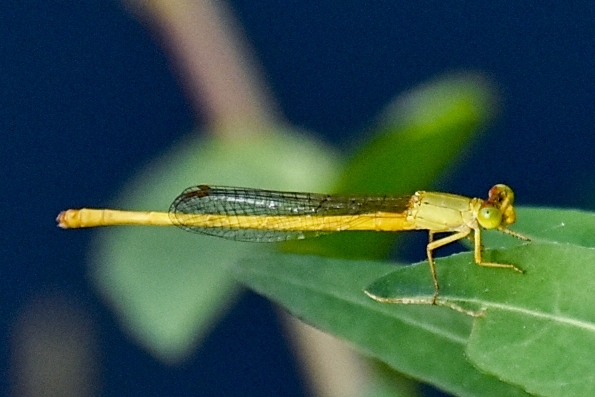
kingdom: Animalia
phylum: Arthropoda
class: Insecta
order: Odonata
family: Coenagrionidae
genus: Ceriagrion
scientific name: Ceriagrion coromandelianum
